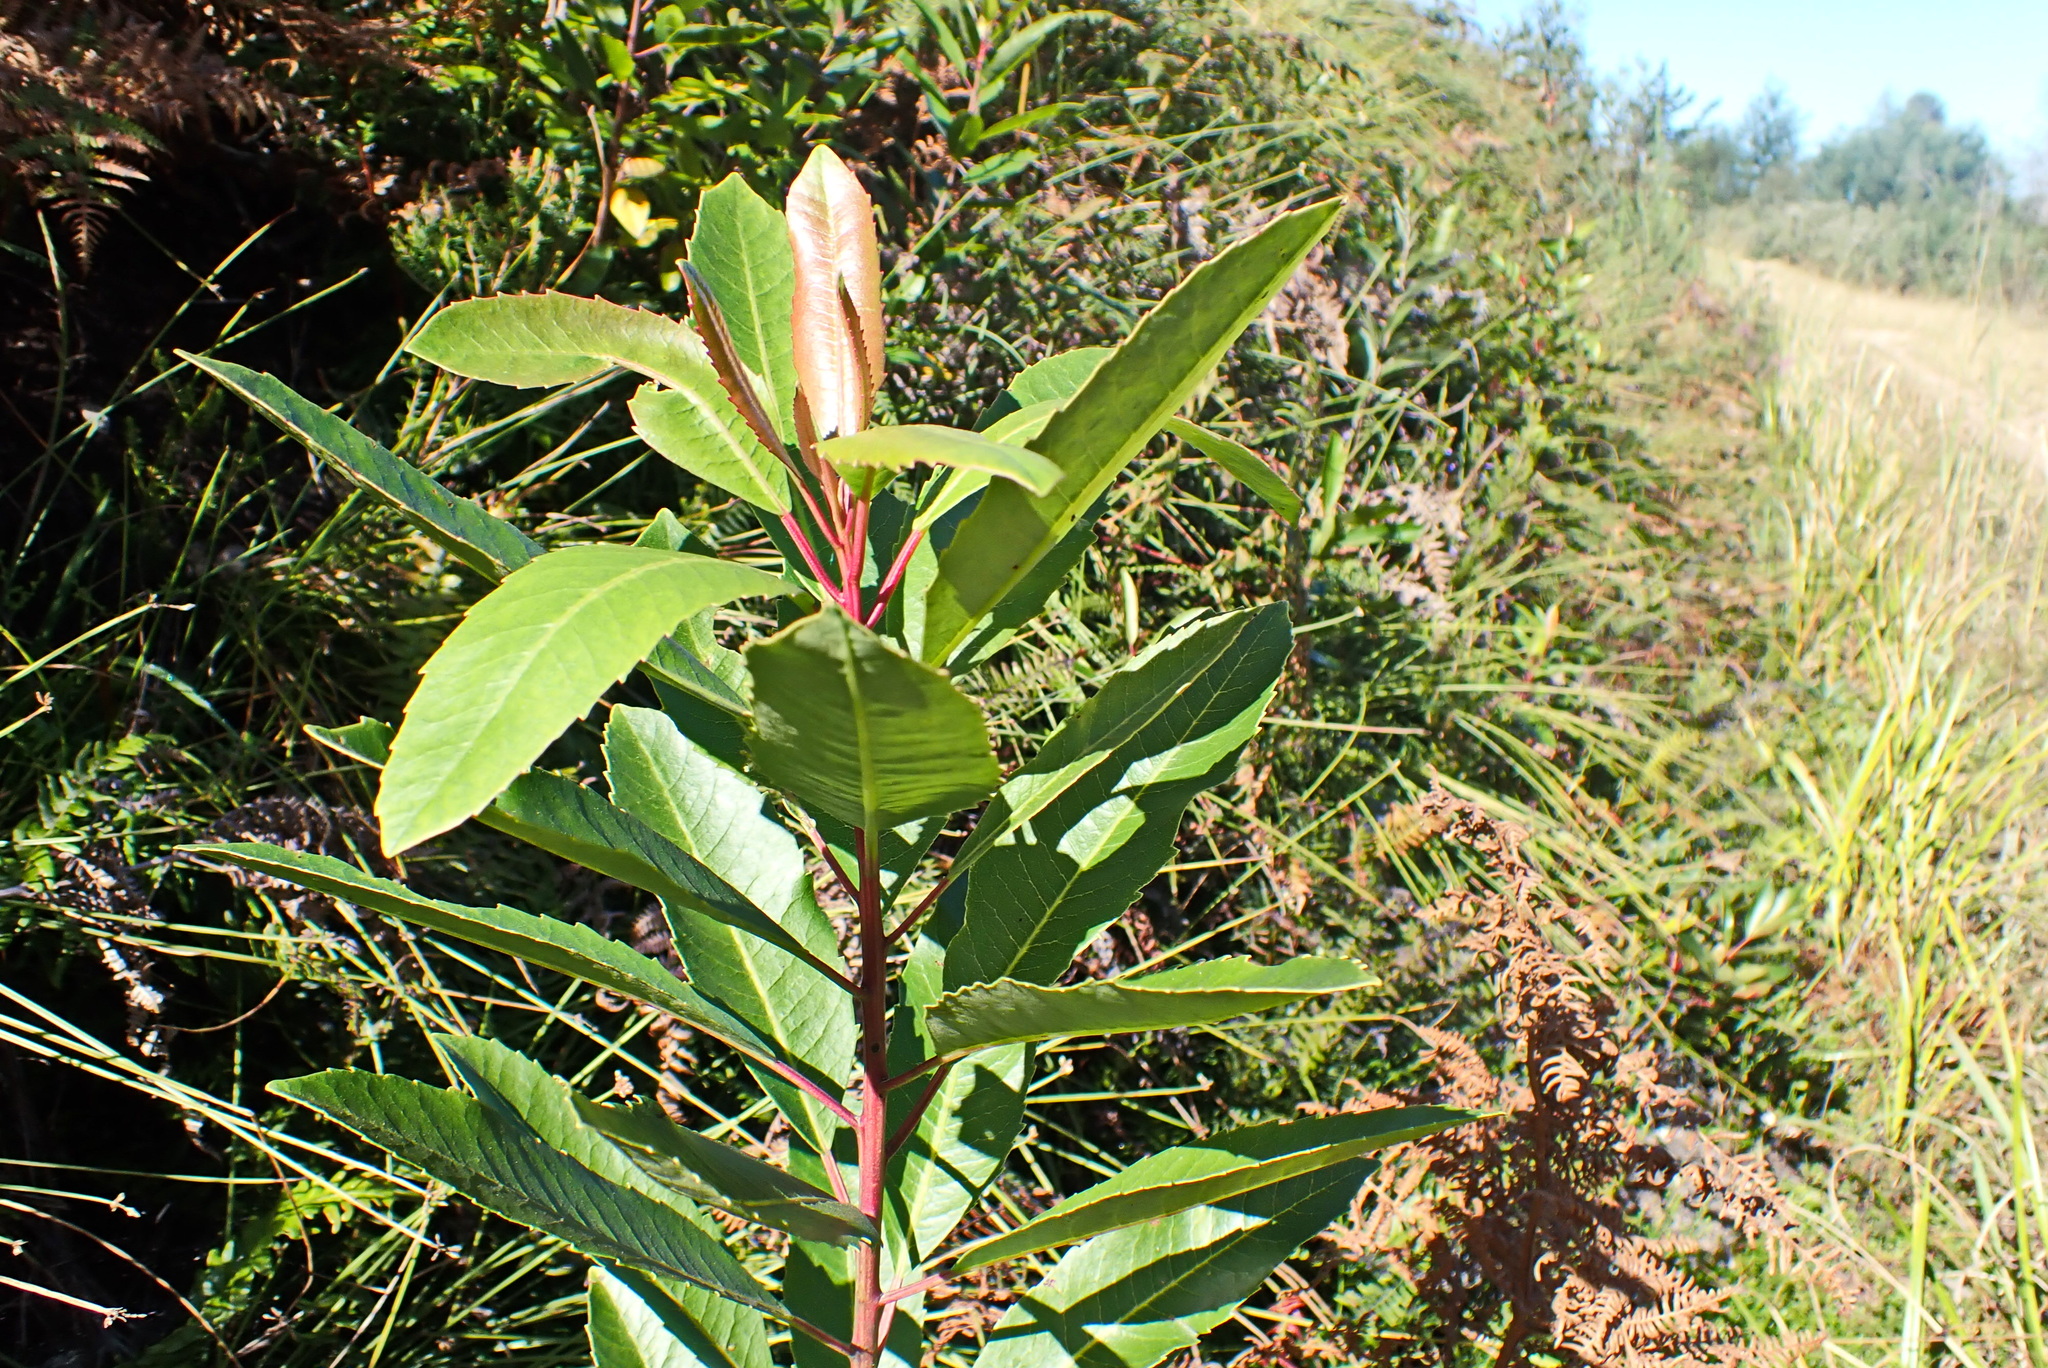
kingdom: Plantae
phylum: Tracheophyta
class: Magnoliopsida
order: Sapindales
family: Anacardiaceae
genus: Laurophyllus
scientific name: Laurophyllus capensis
